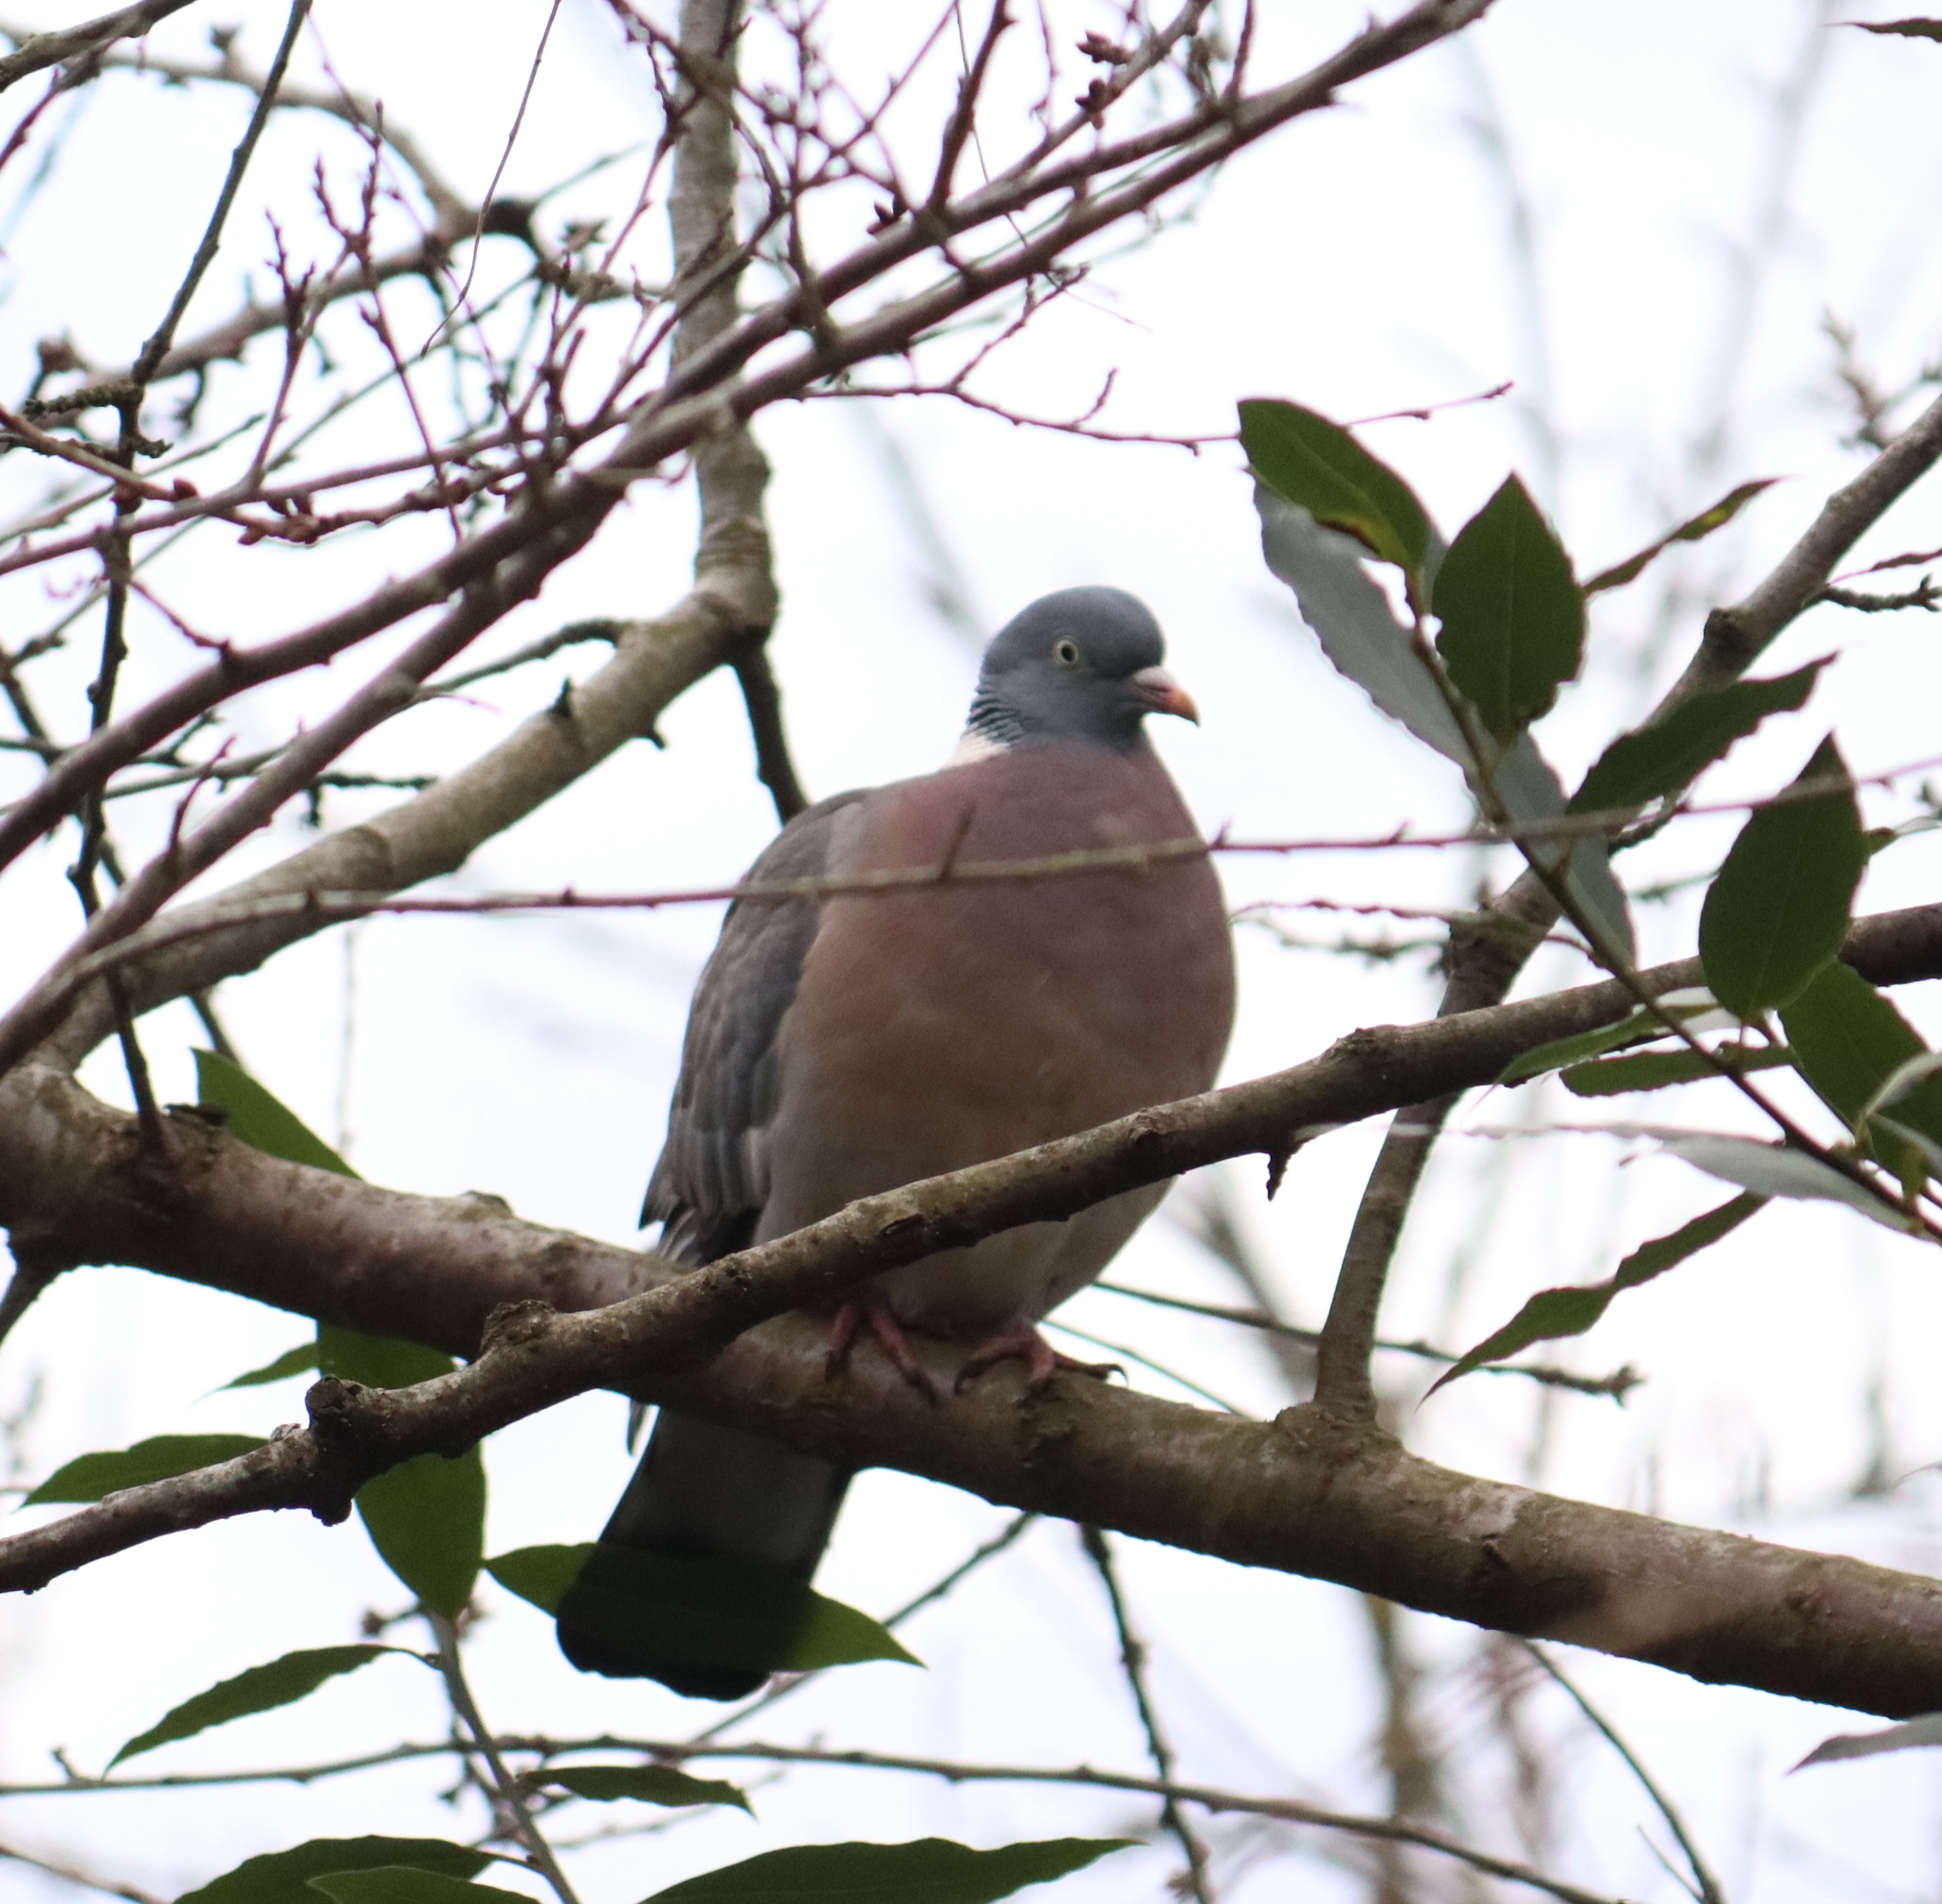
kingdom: Animalia
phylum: Chordata
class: Aves
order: Columbiformes
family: Columbidae
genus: Columba
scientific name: Columba palumbus
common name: Common wood pigeon
